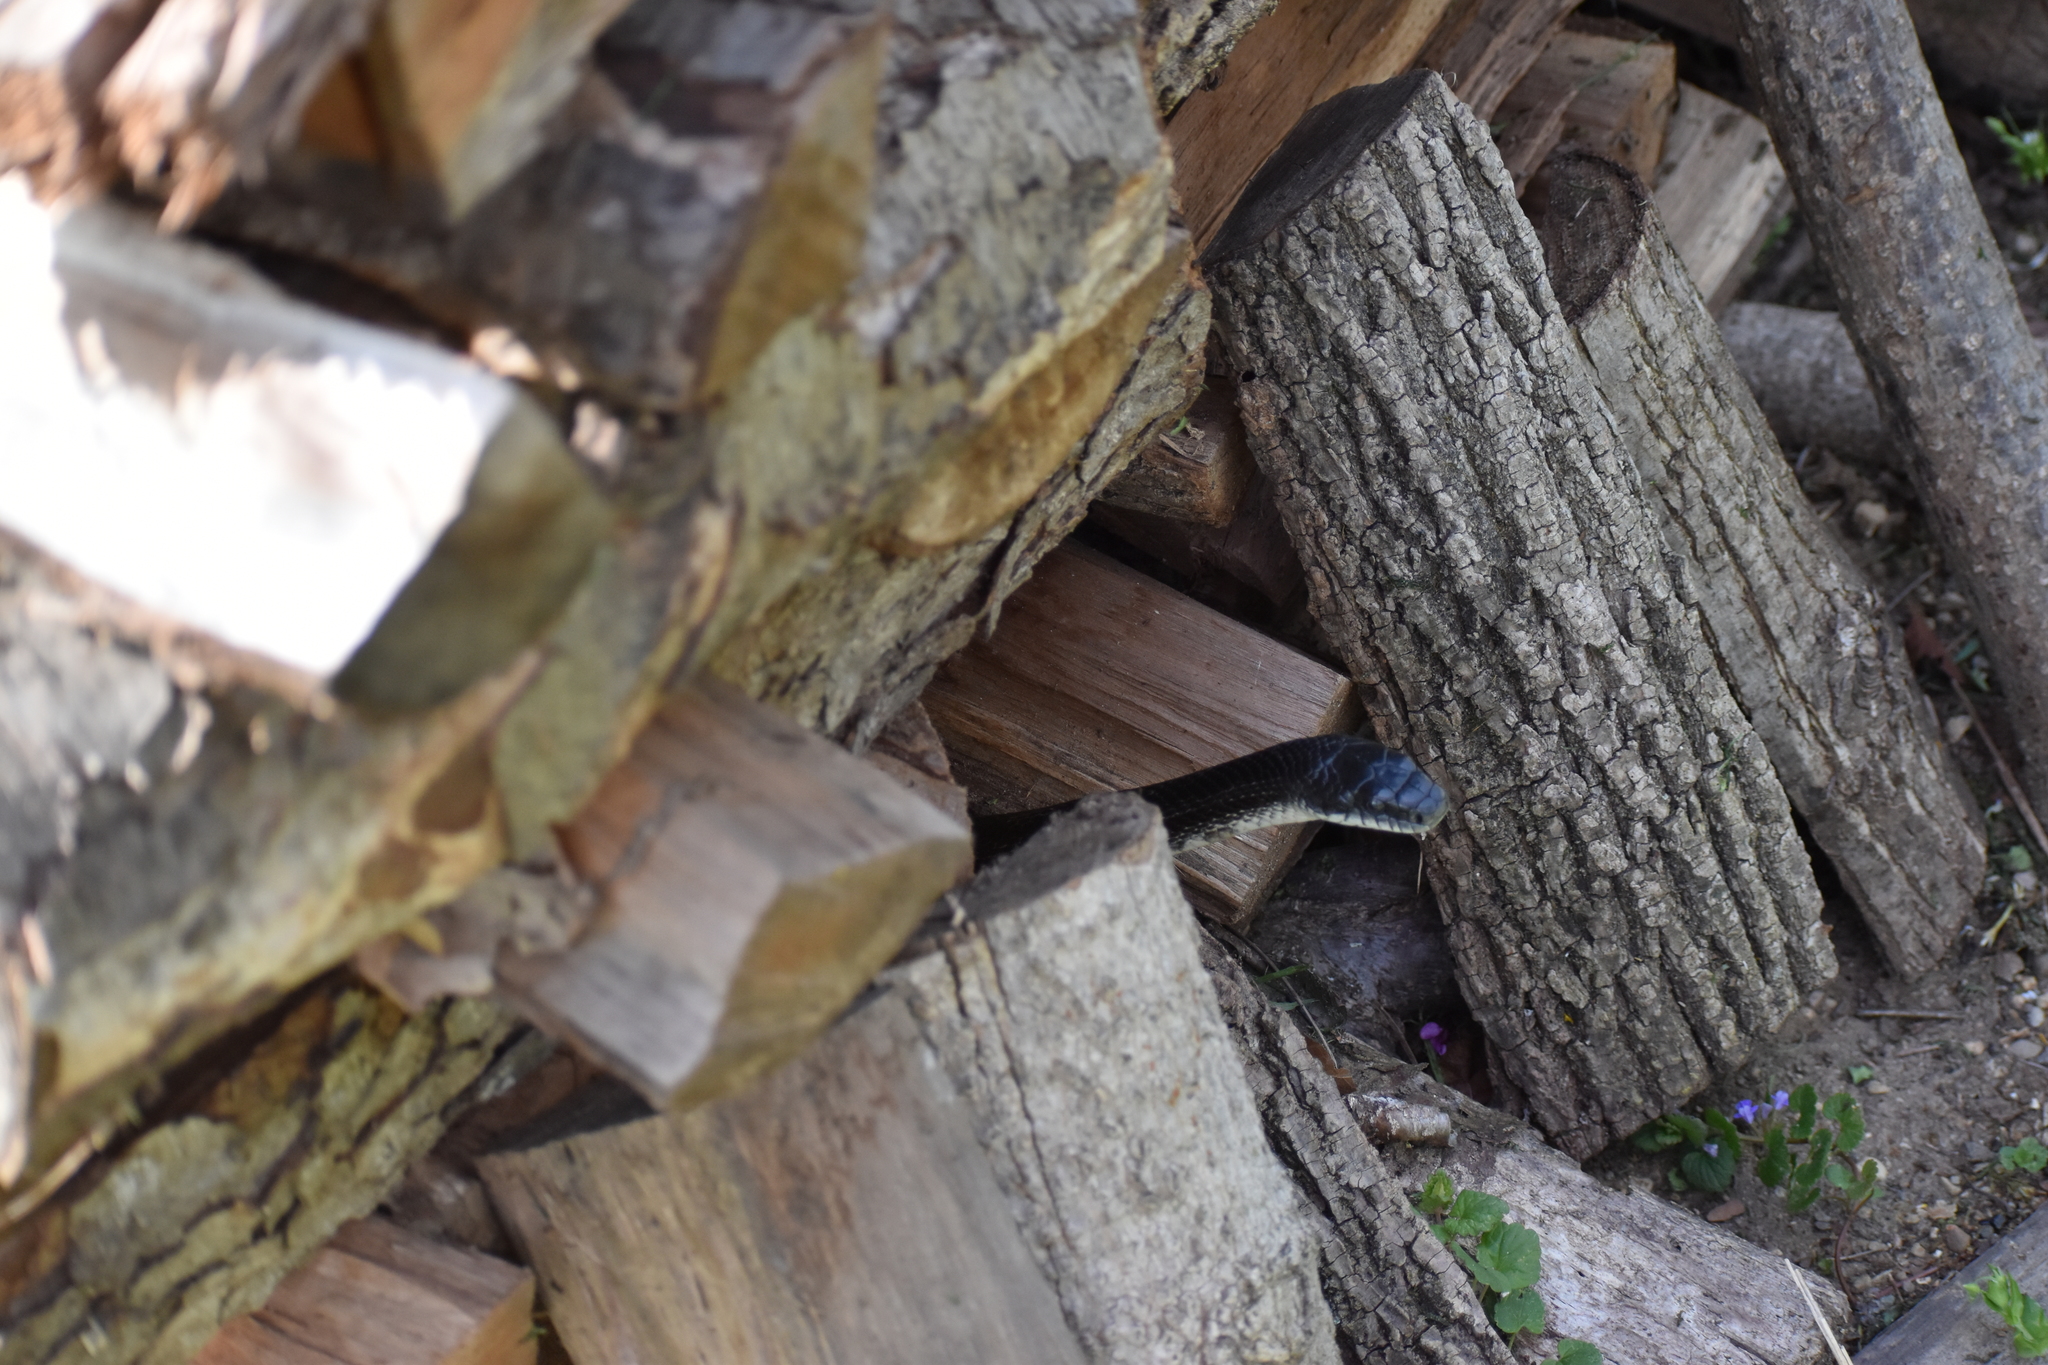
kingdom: Animalia
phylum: Chordata
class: Squamata
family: Colubridae
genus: Pantherophis
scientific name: Pantherophis spiloides
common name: Gray rat snake
